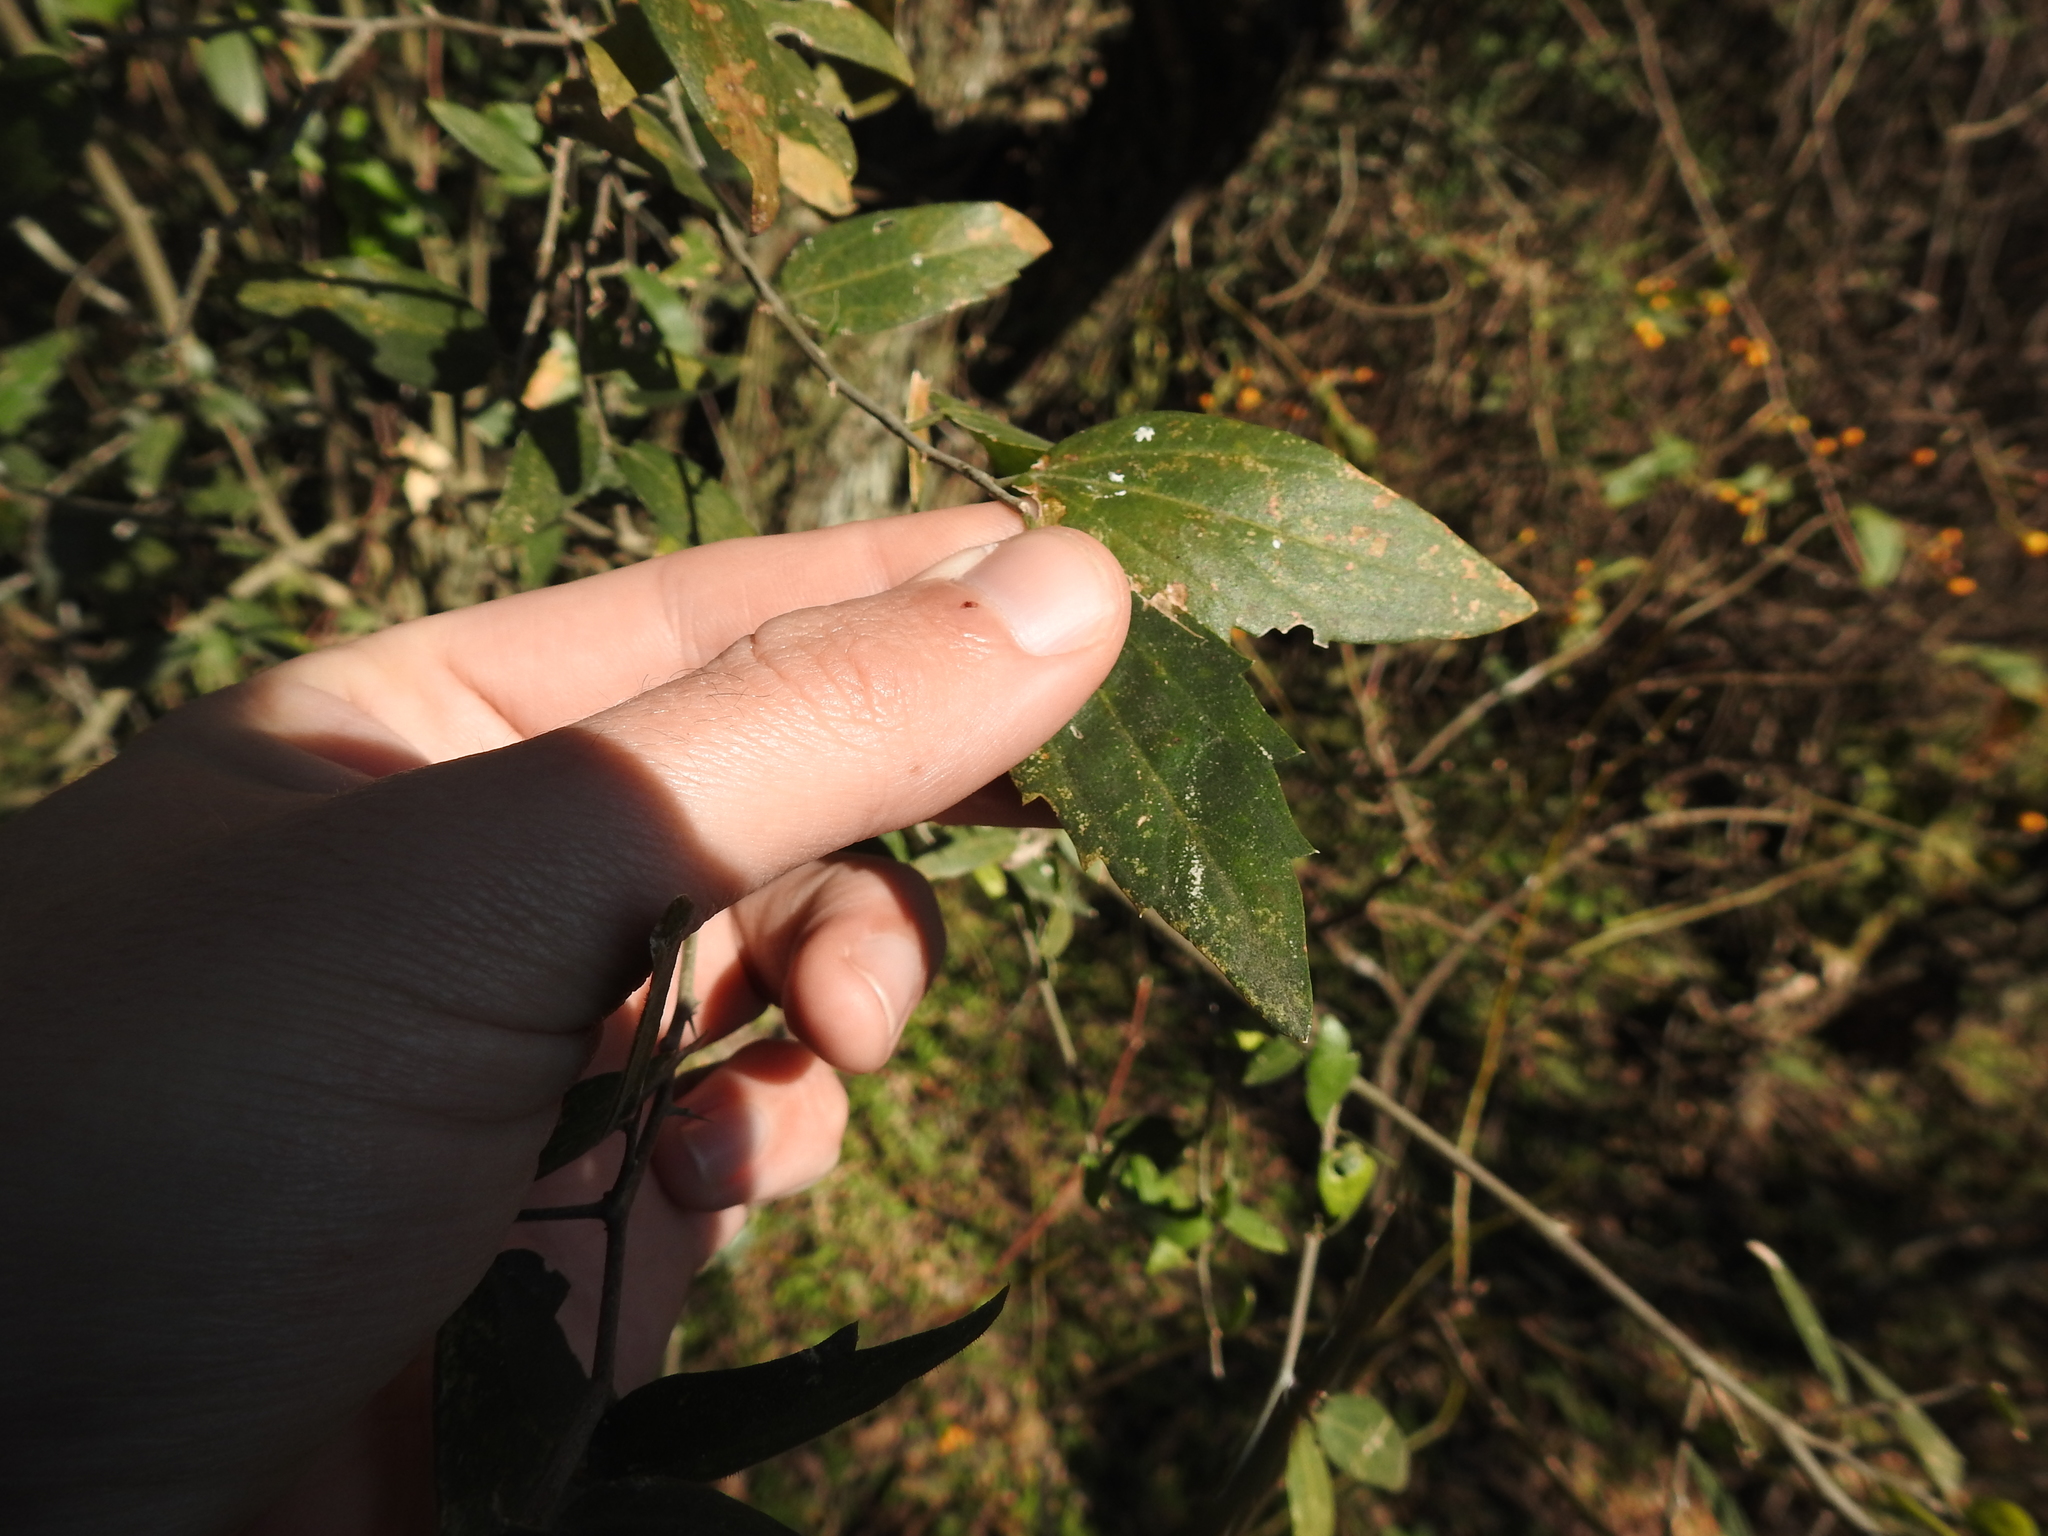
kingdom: Plantae
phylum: Tracheophyta
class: Magnoliopsida
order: Rosales
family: Cannabaceae
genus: Celtis
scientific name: Celtis tala
